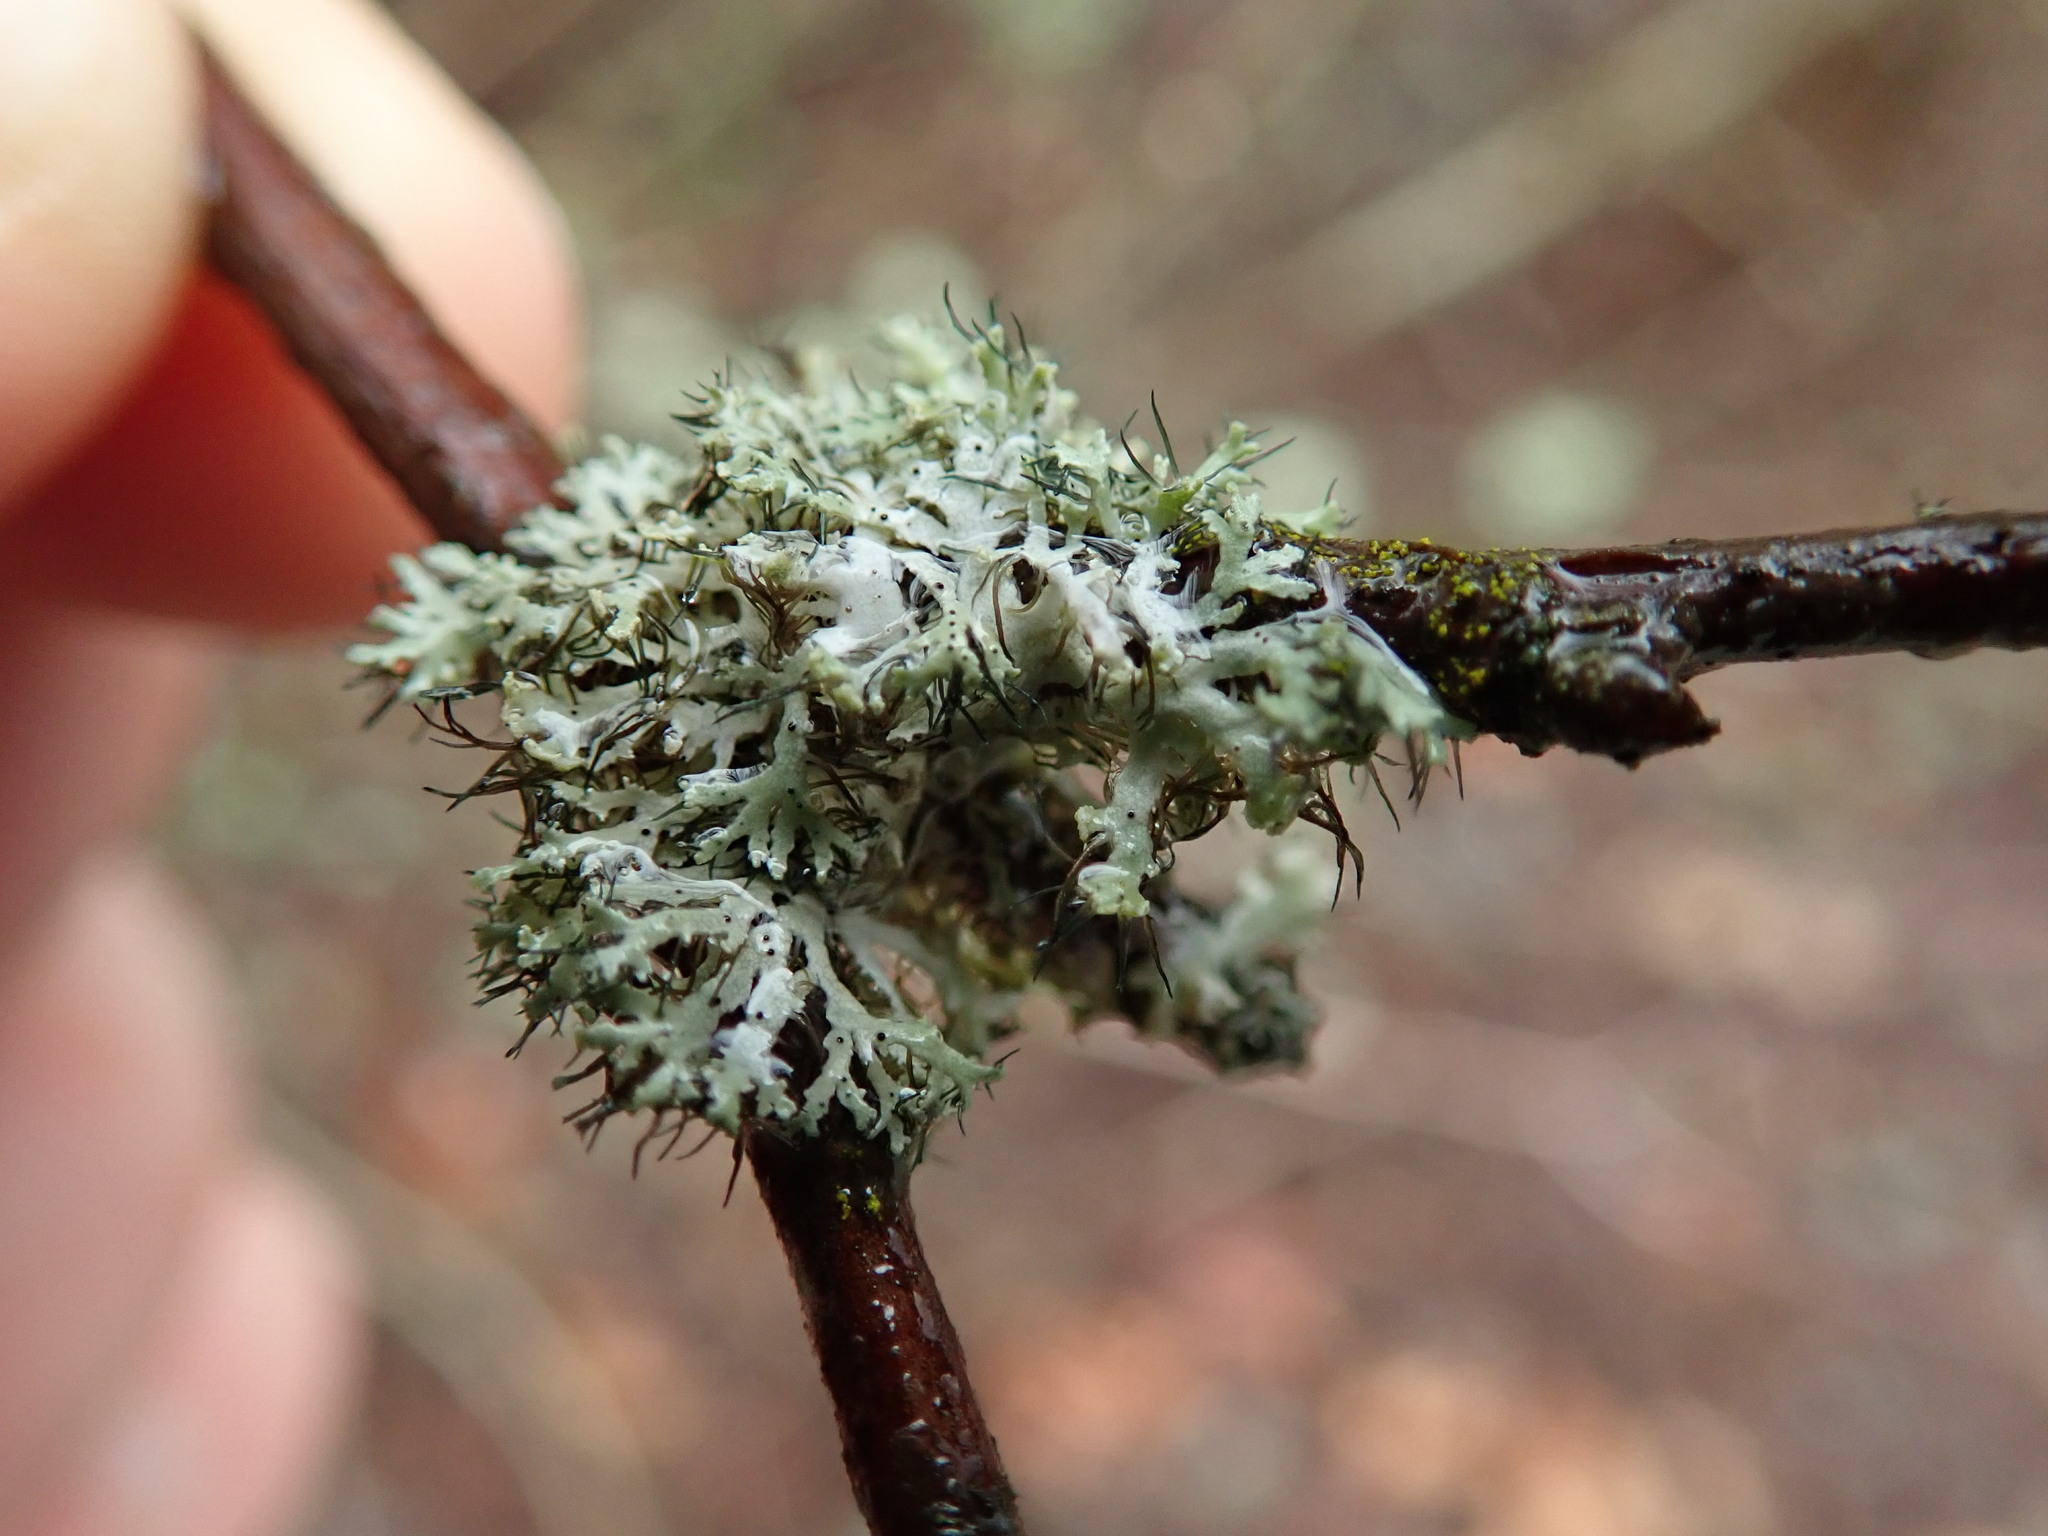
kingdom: Fungi
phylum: Ascomycota
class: Lecanoromycetes
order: Caliciales
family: Physciaceae
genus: Physcia
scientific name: Physcia tenella
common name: Fringed rosette lichen
